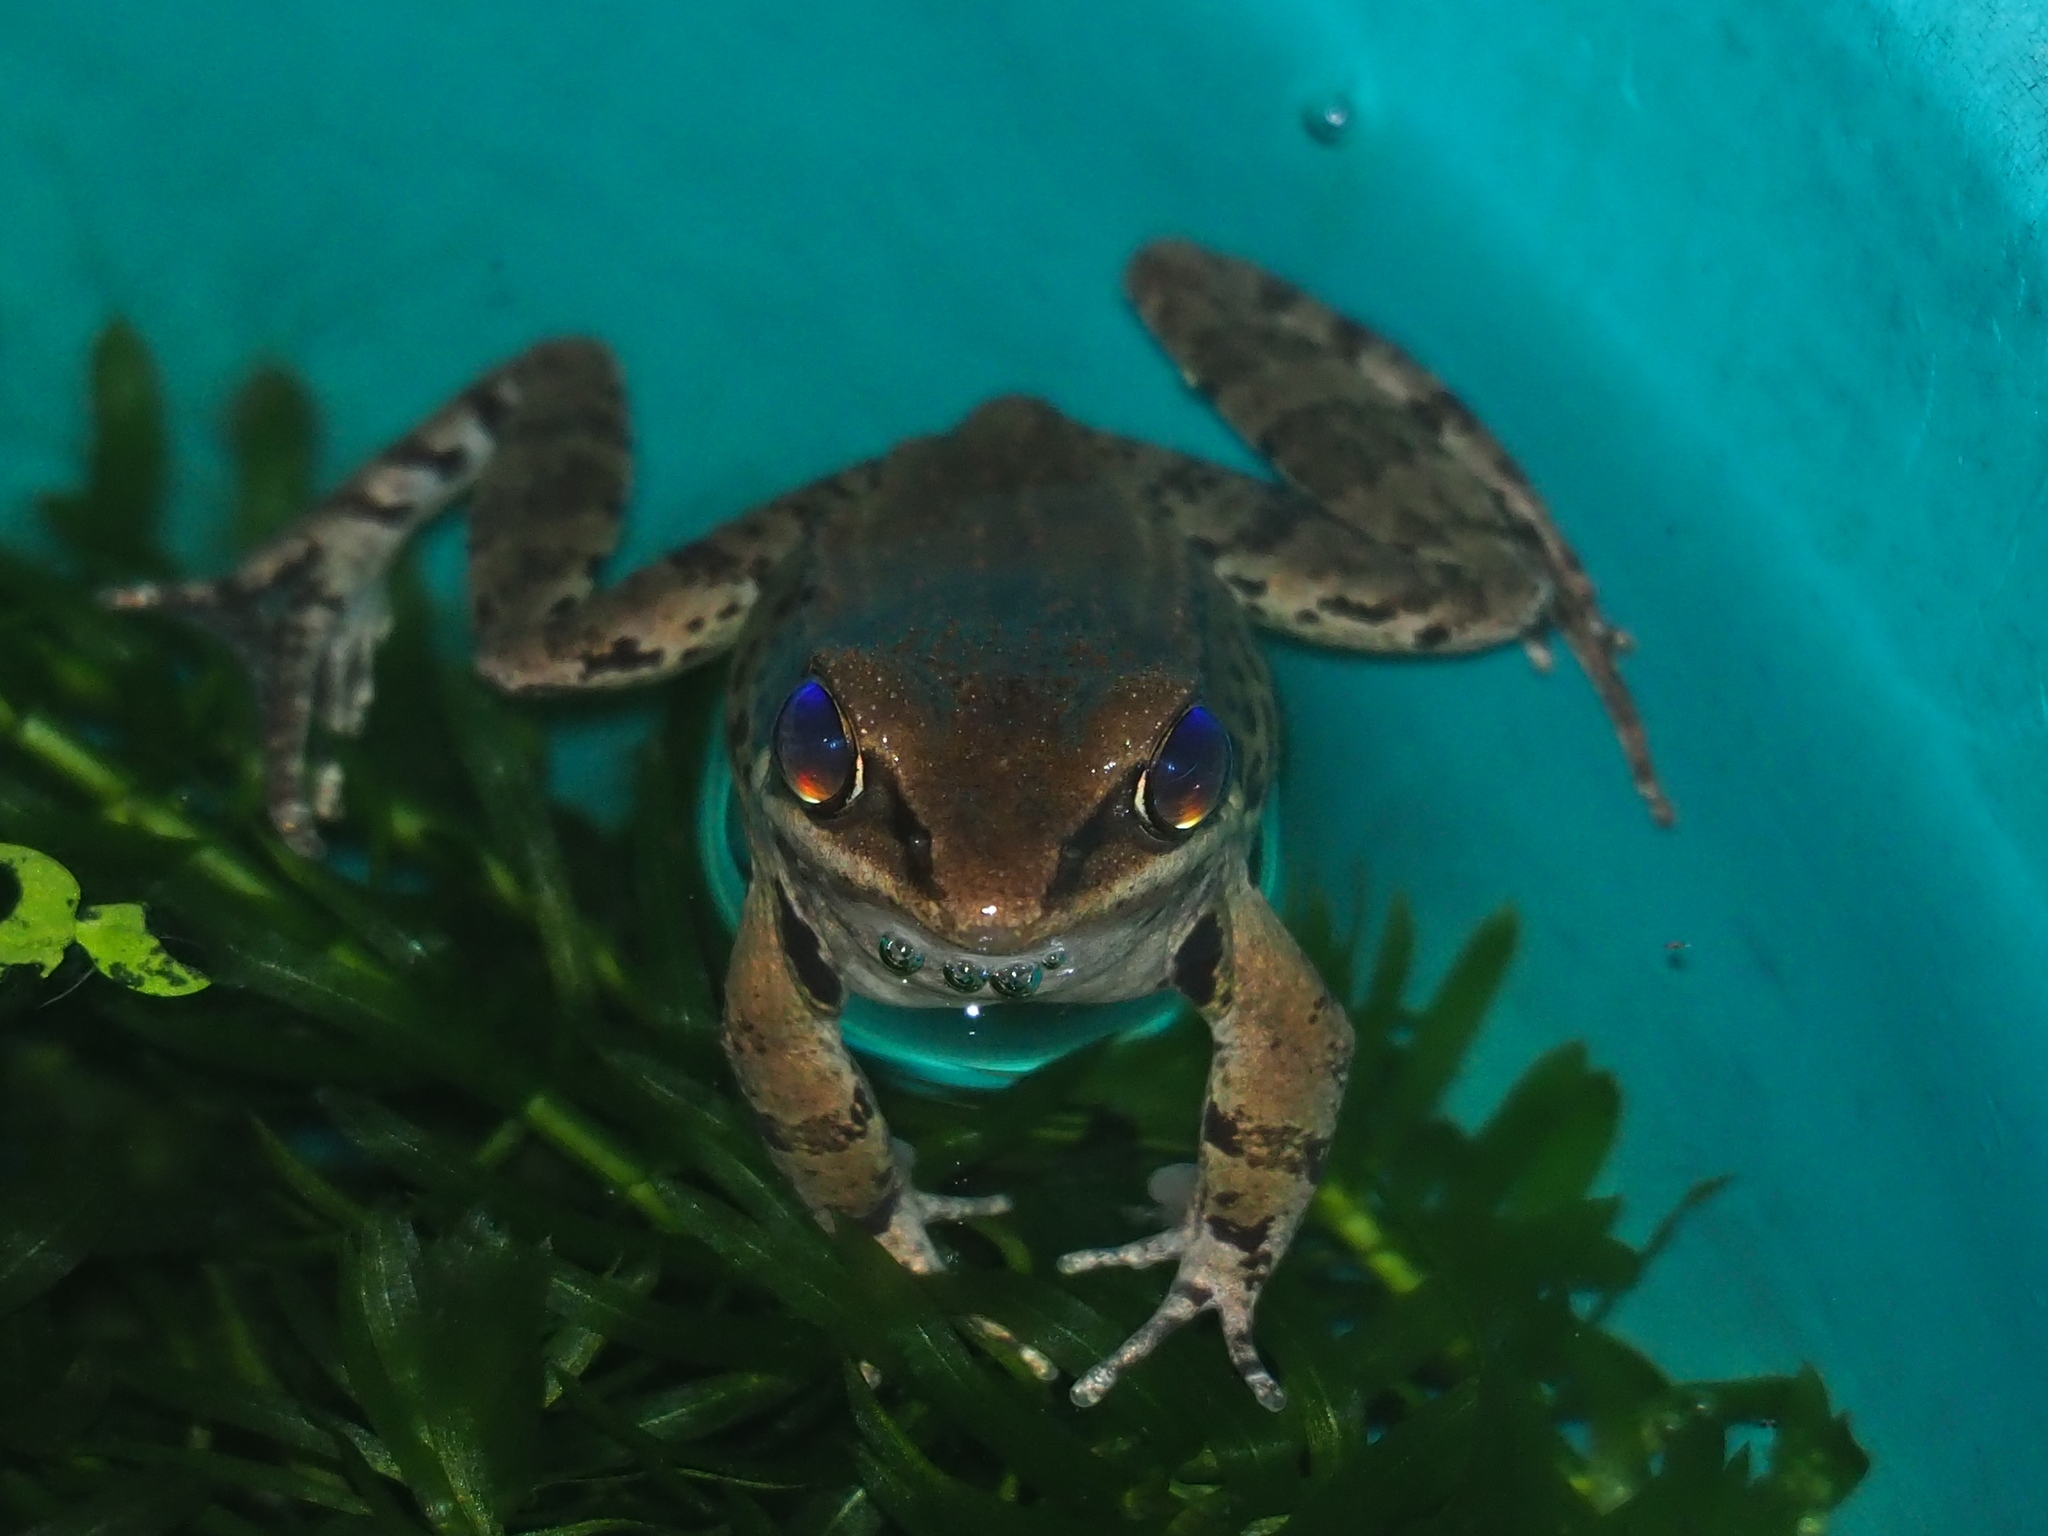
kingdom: Animalia
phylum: Chordata
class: Amphibia
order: Anura
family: Ranidae
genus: Hylarana
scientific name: Hylarana latouchii
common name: Broad-folded frog
